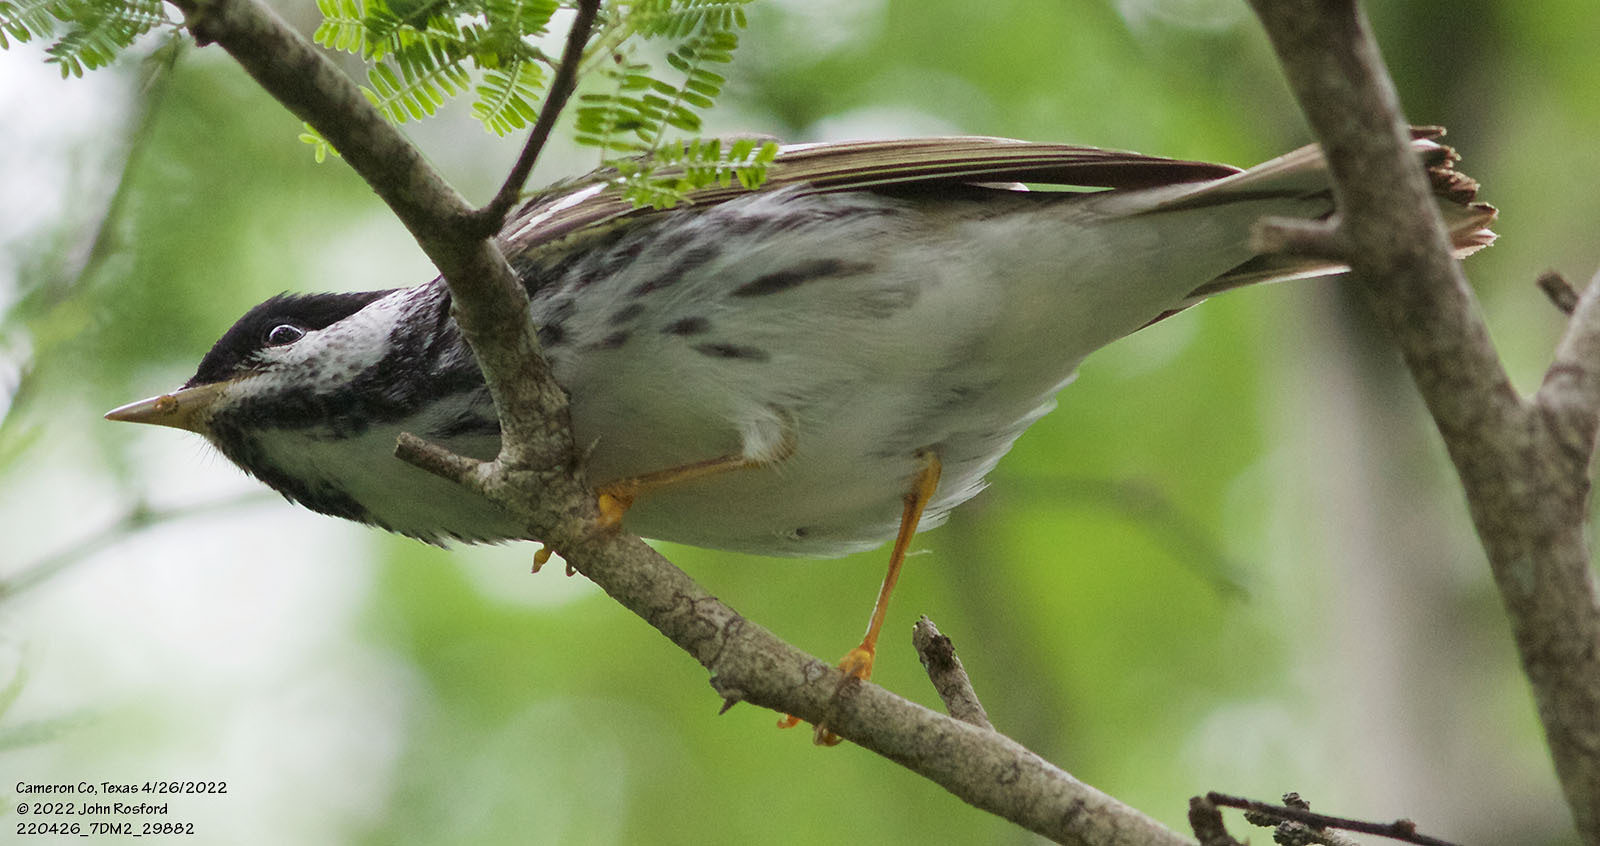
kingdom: Animalia
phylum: Chordata
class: Aves
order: Passeriformes
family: Parulidae
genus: Setophaga
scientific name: Setophaga striata
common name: Blackpoll warbler
